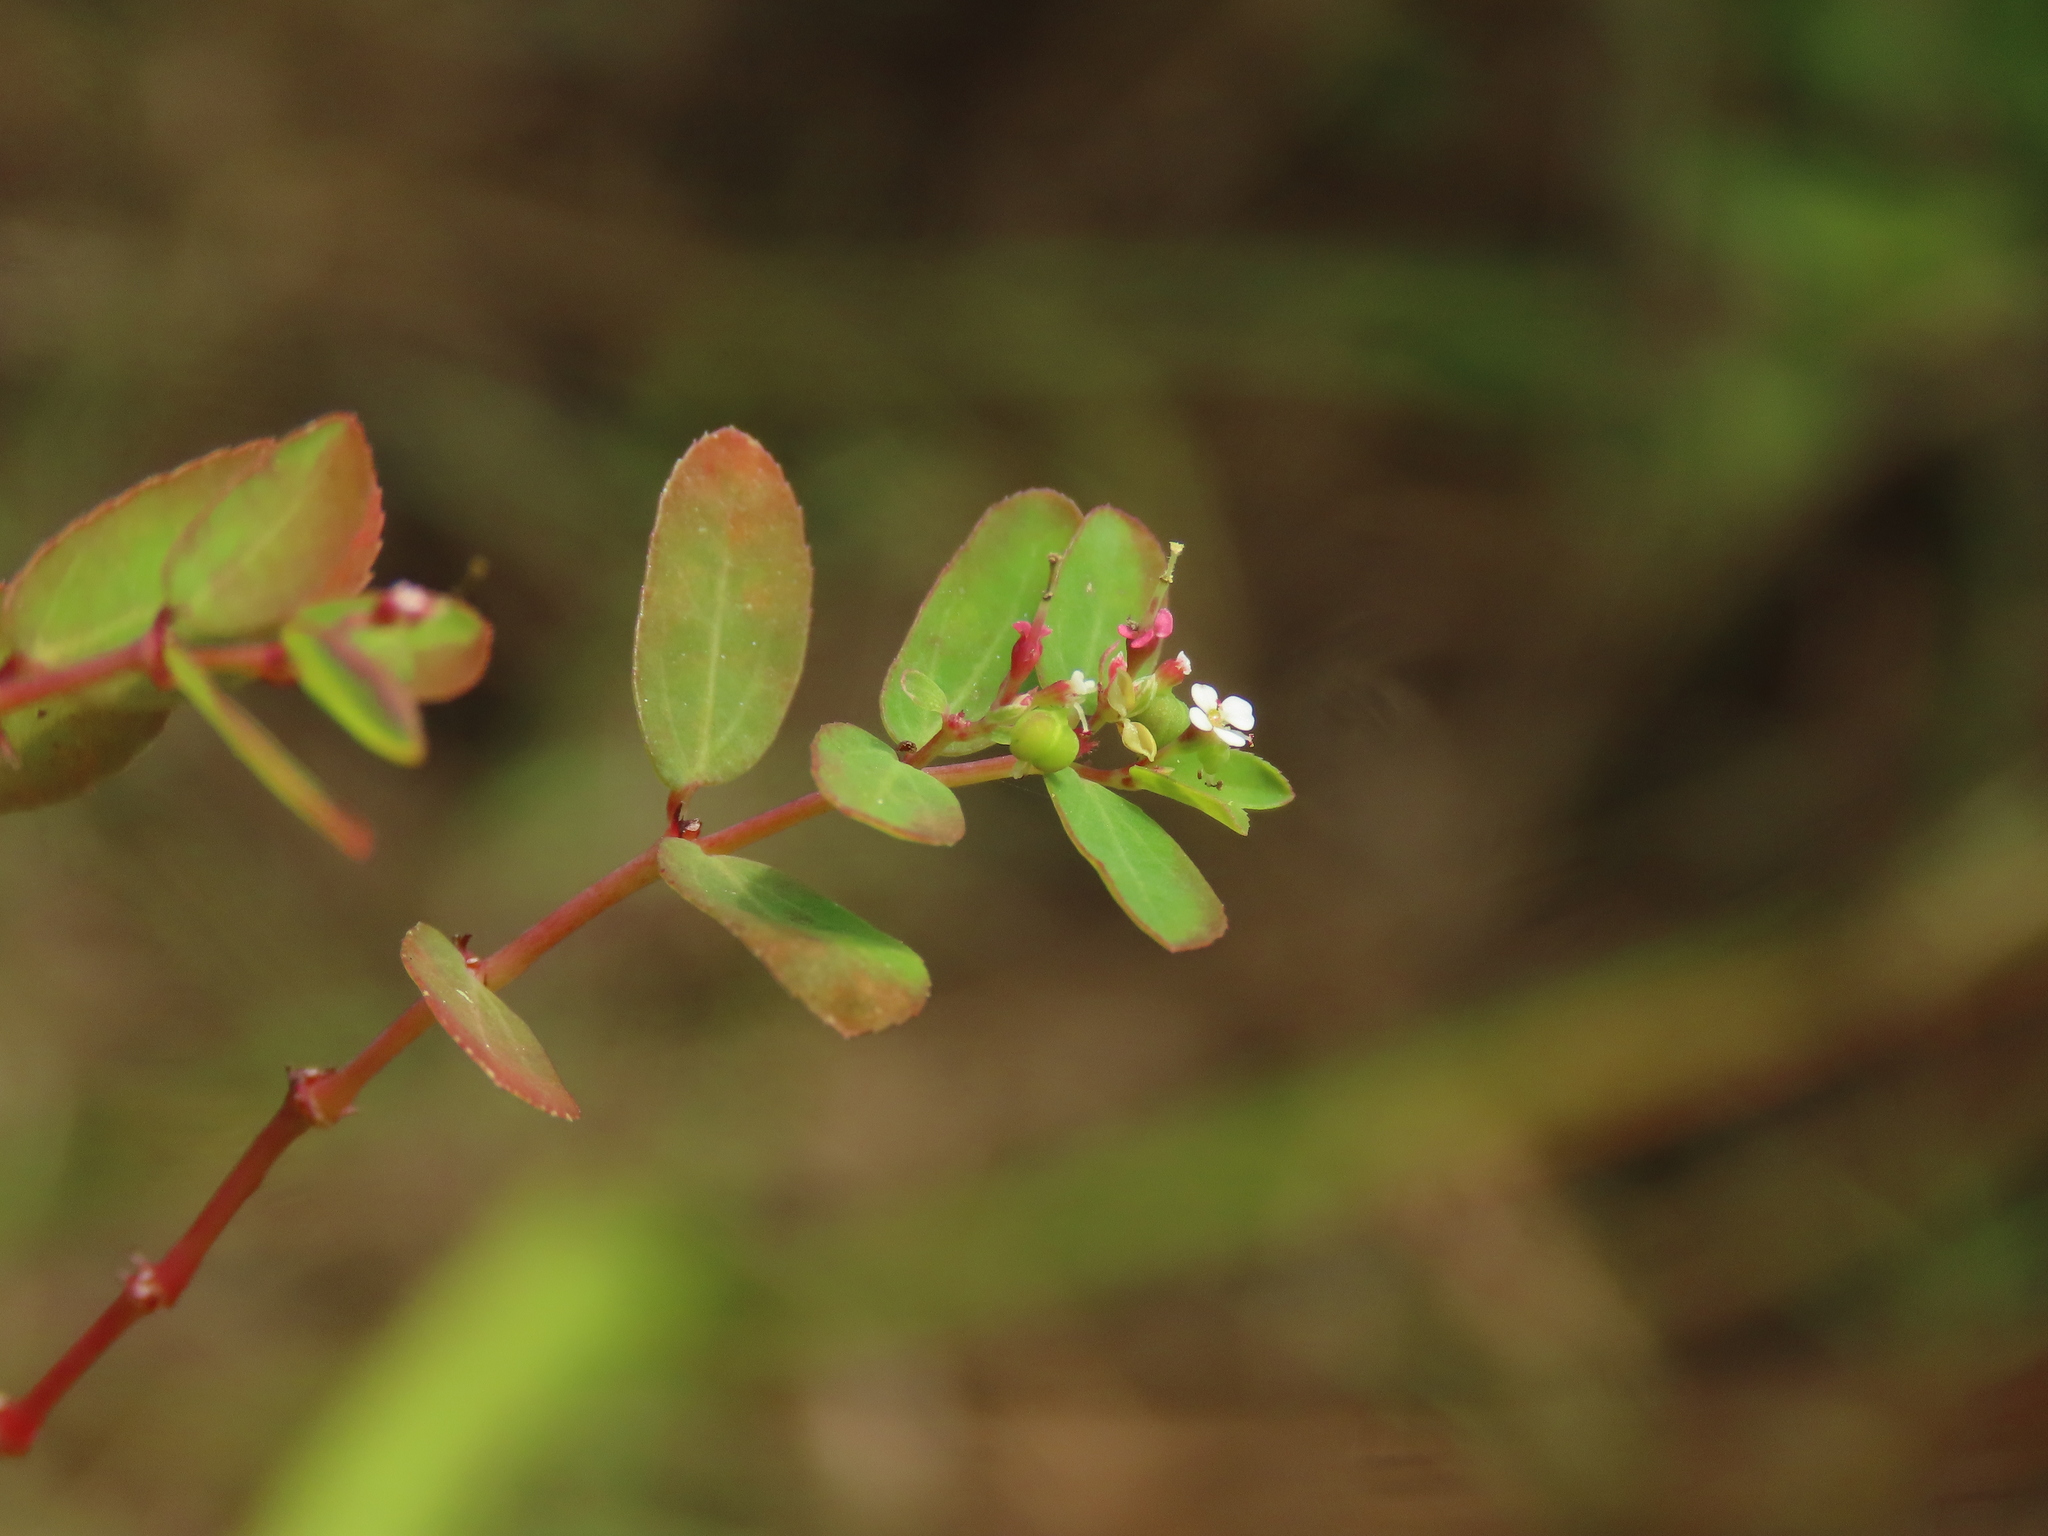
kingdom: Plantae
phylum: Tracheophyta
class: Magnoliopsida
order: Malpighiales
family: Euphorbiaceae
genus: Euphorbia
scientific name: Euphorbia hypericifolia
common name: Graceful sandmat
